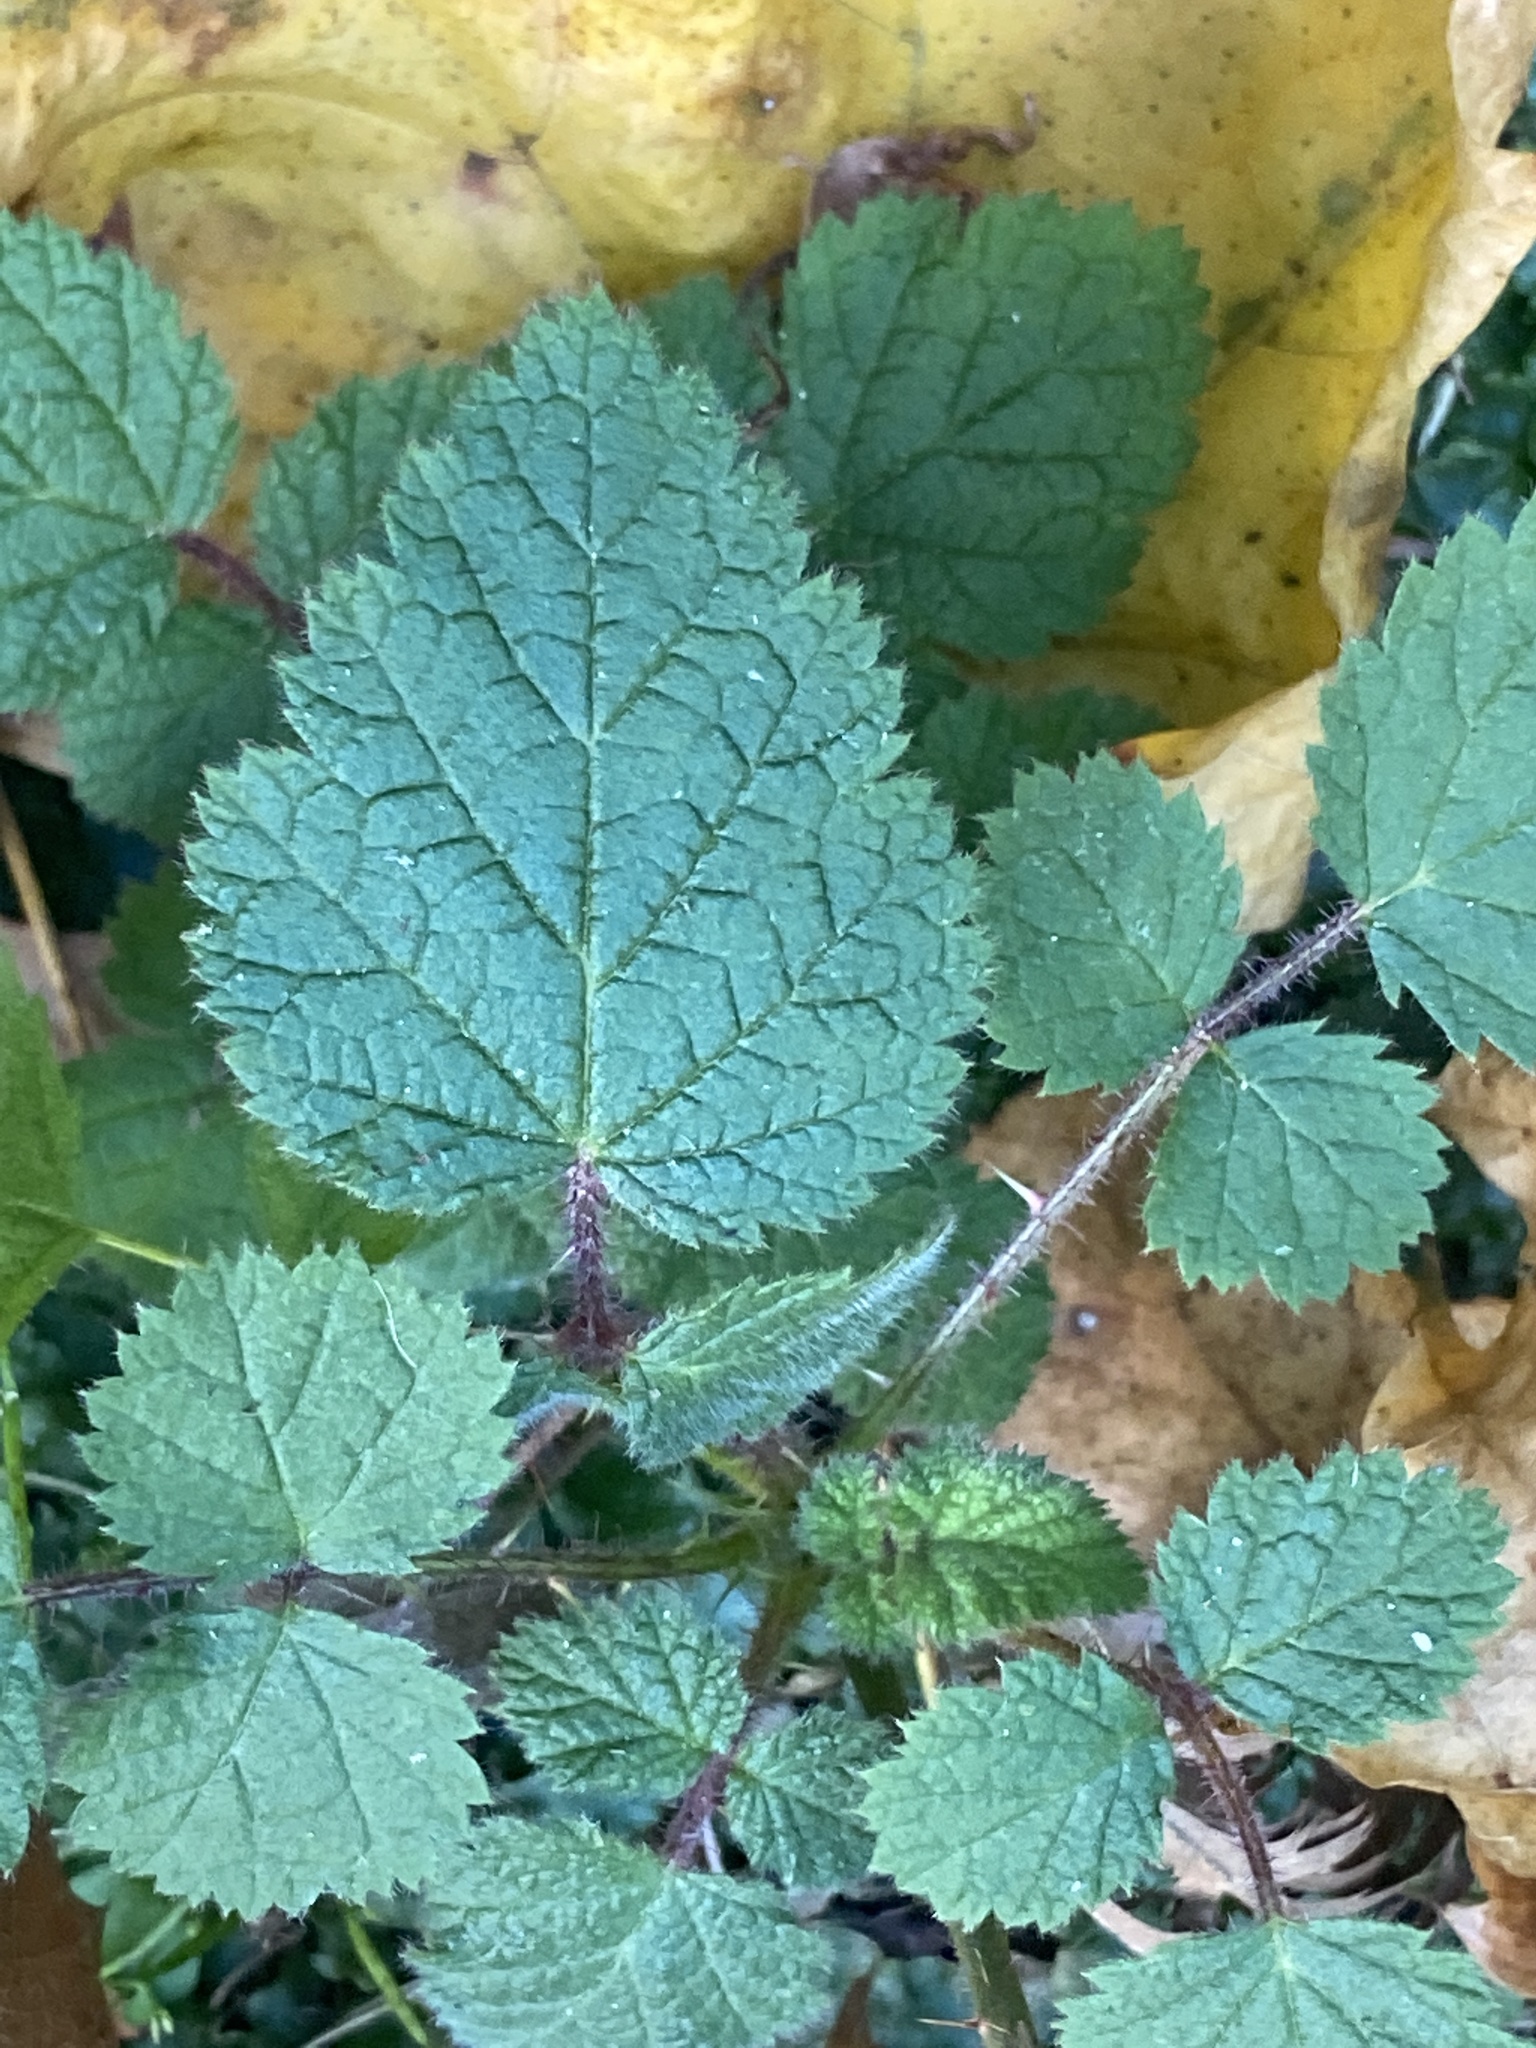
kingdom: Plantae
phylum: Tracheophyta
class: Magnoliopsida
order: Rosales
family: Rosaceae
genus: Rubus
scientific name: Rubus phoenicolasius
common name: Japanese wineberry
